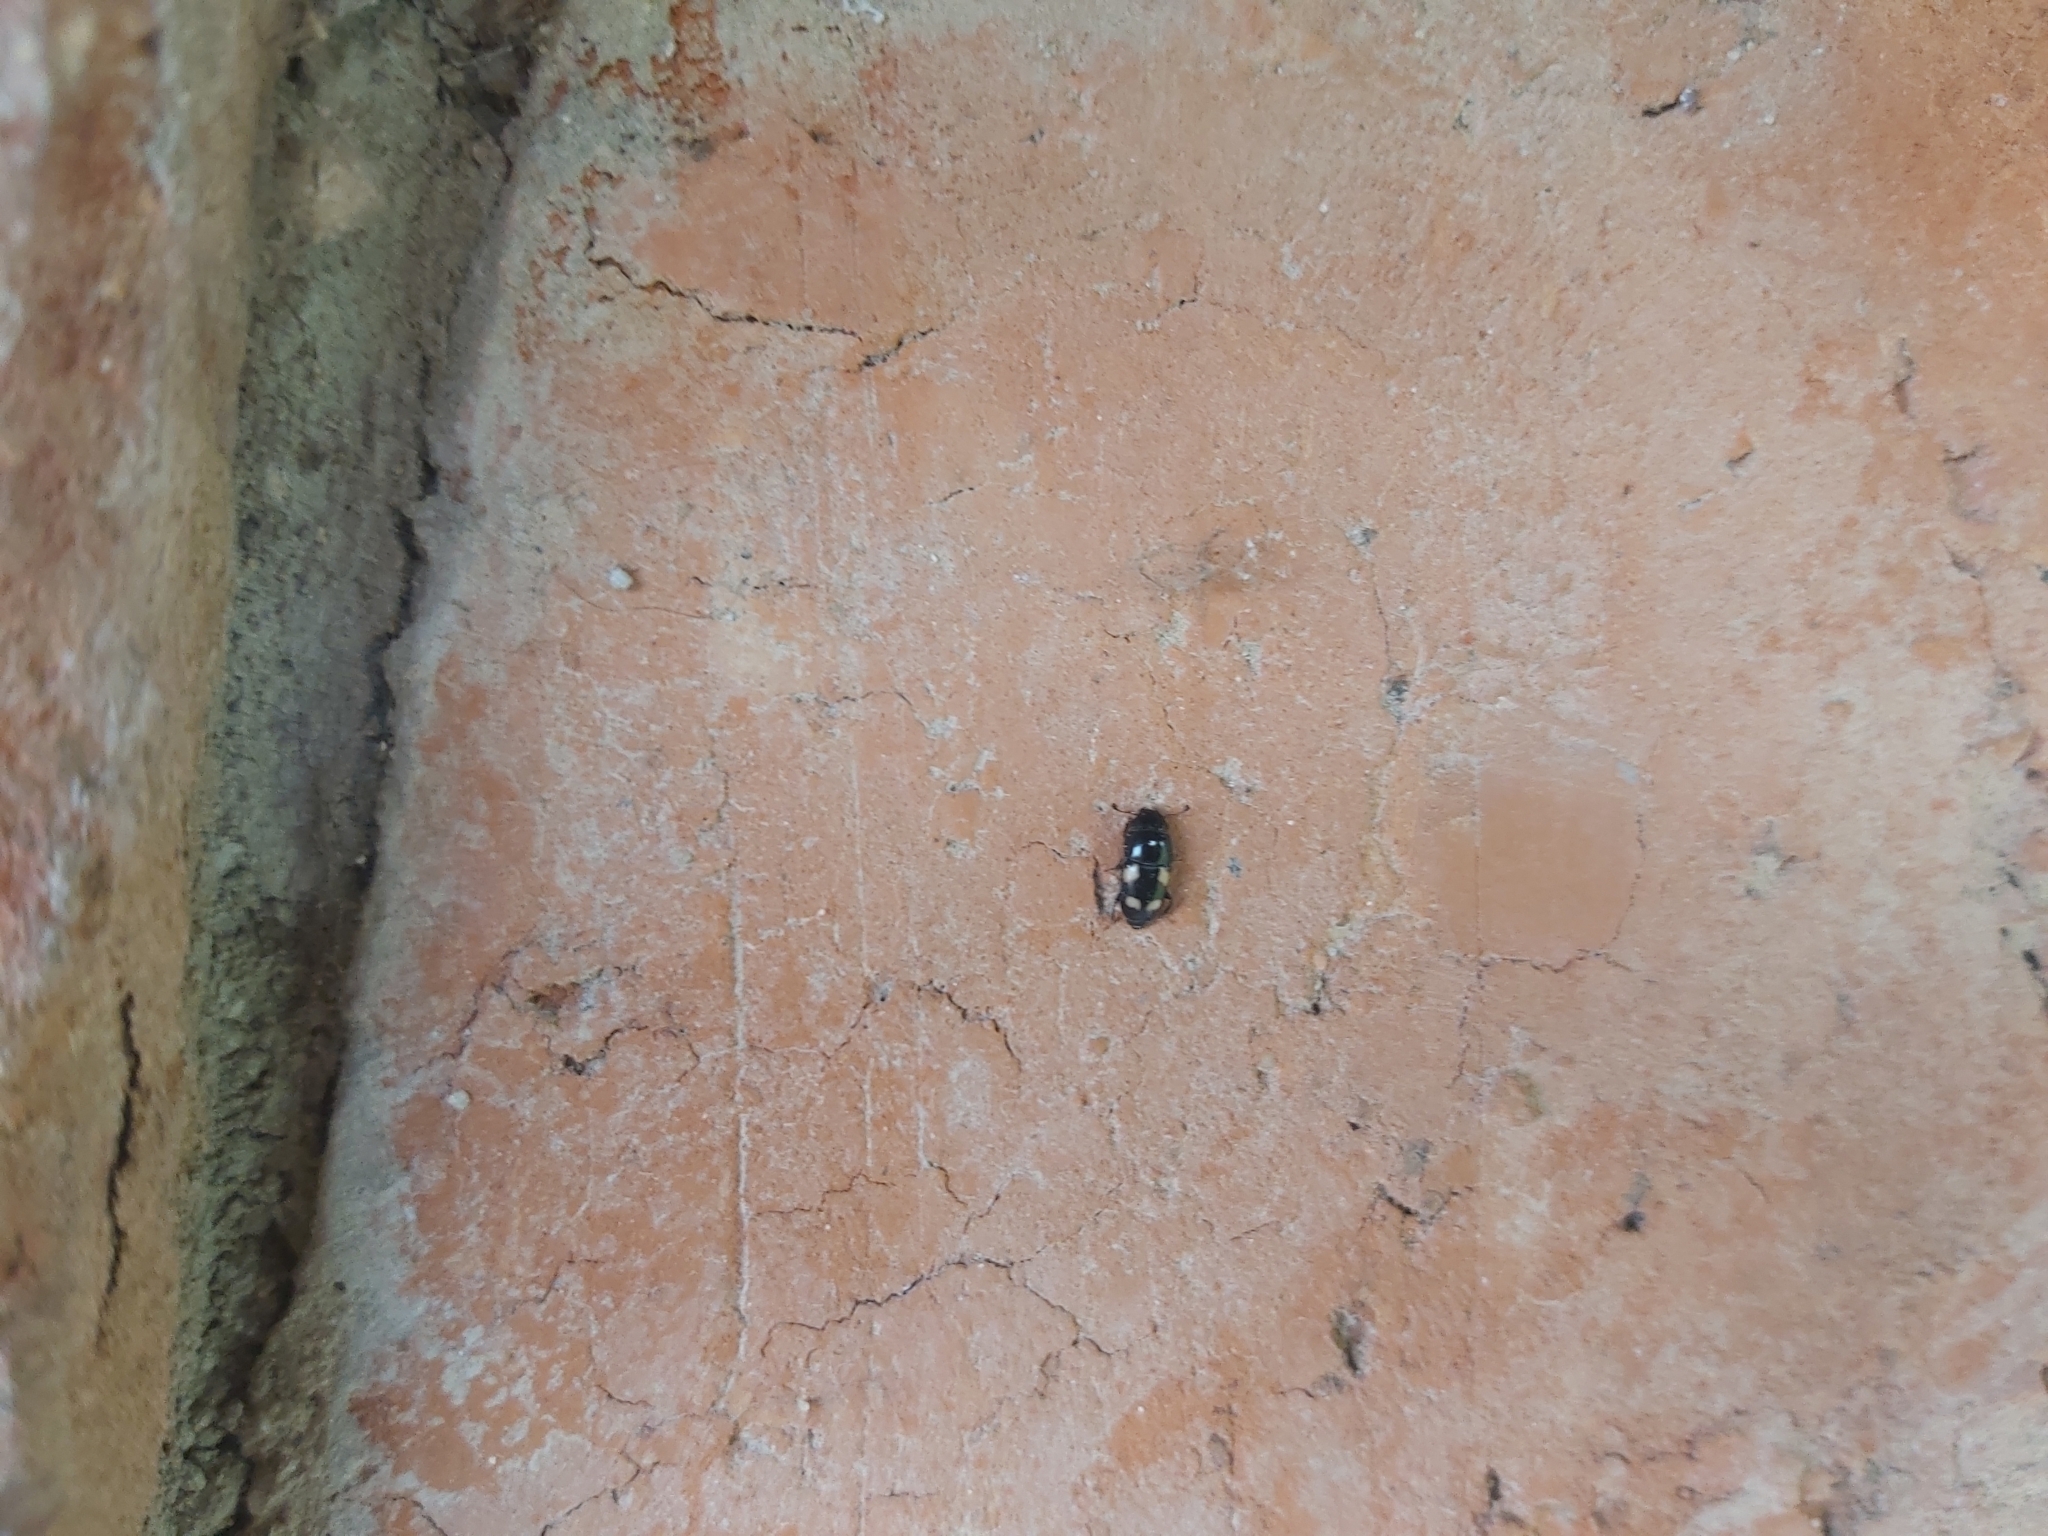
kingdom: Animalia
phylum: Arthropoda
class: Insecta
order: Coleoptera
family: Nitidulidae
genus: Glischrochilus
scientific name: Glischrochilus quadrisignatus
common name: Picnic beetle
